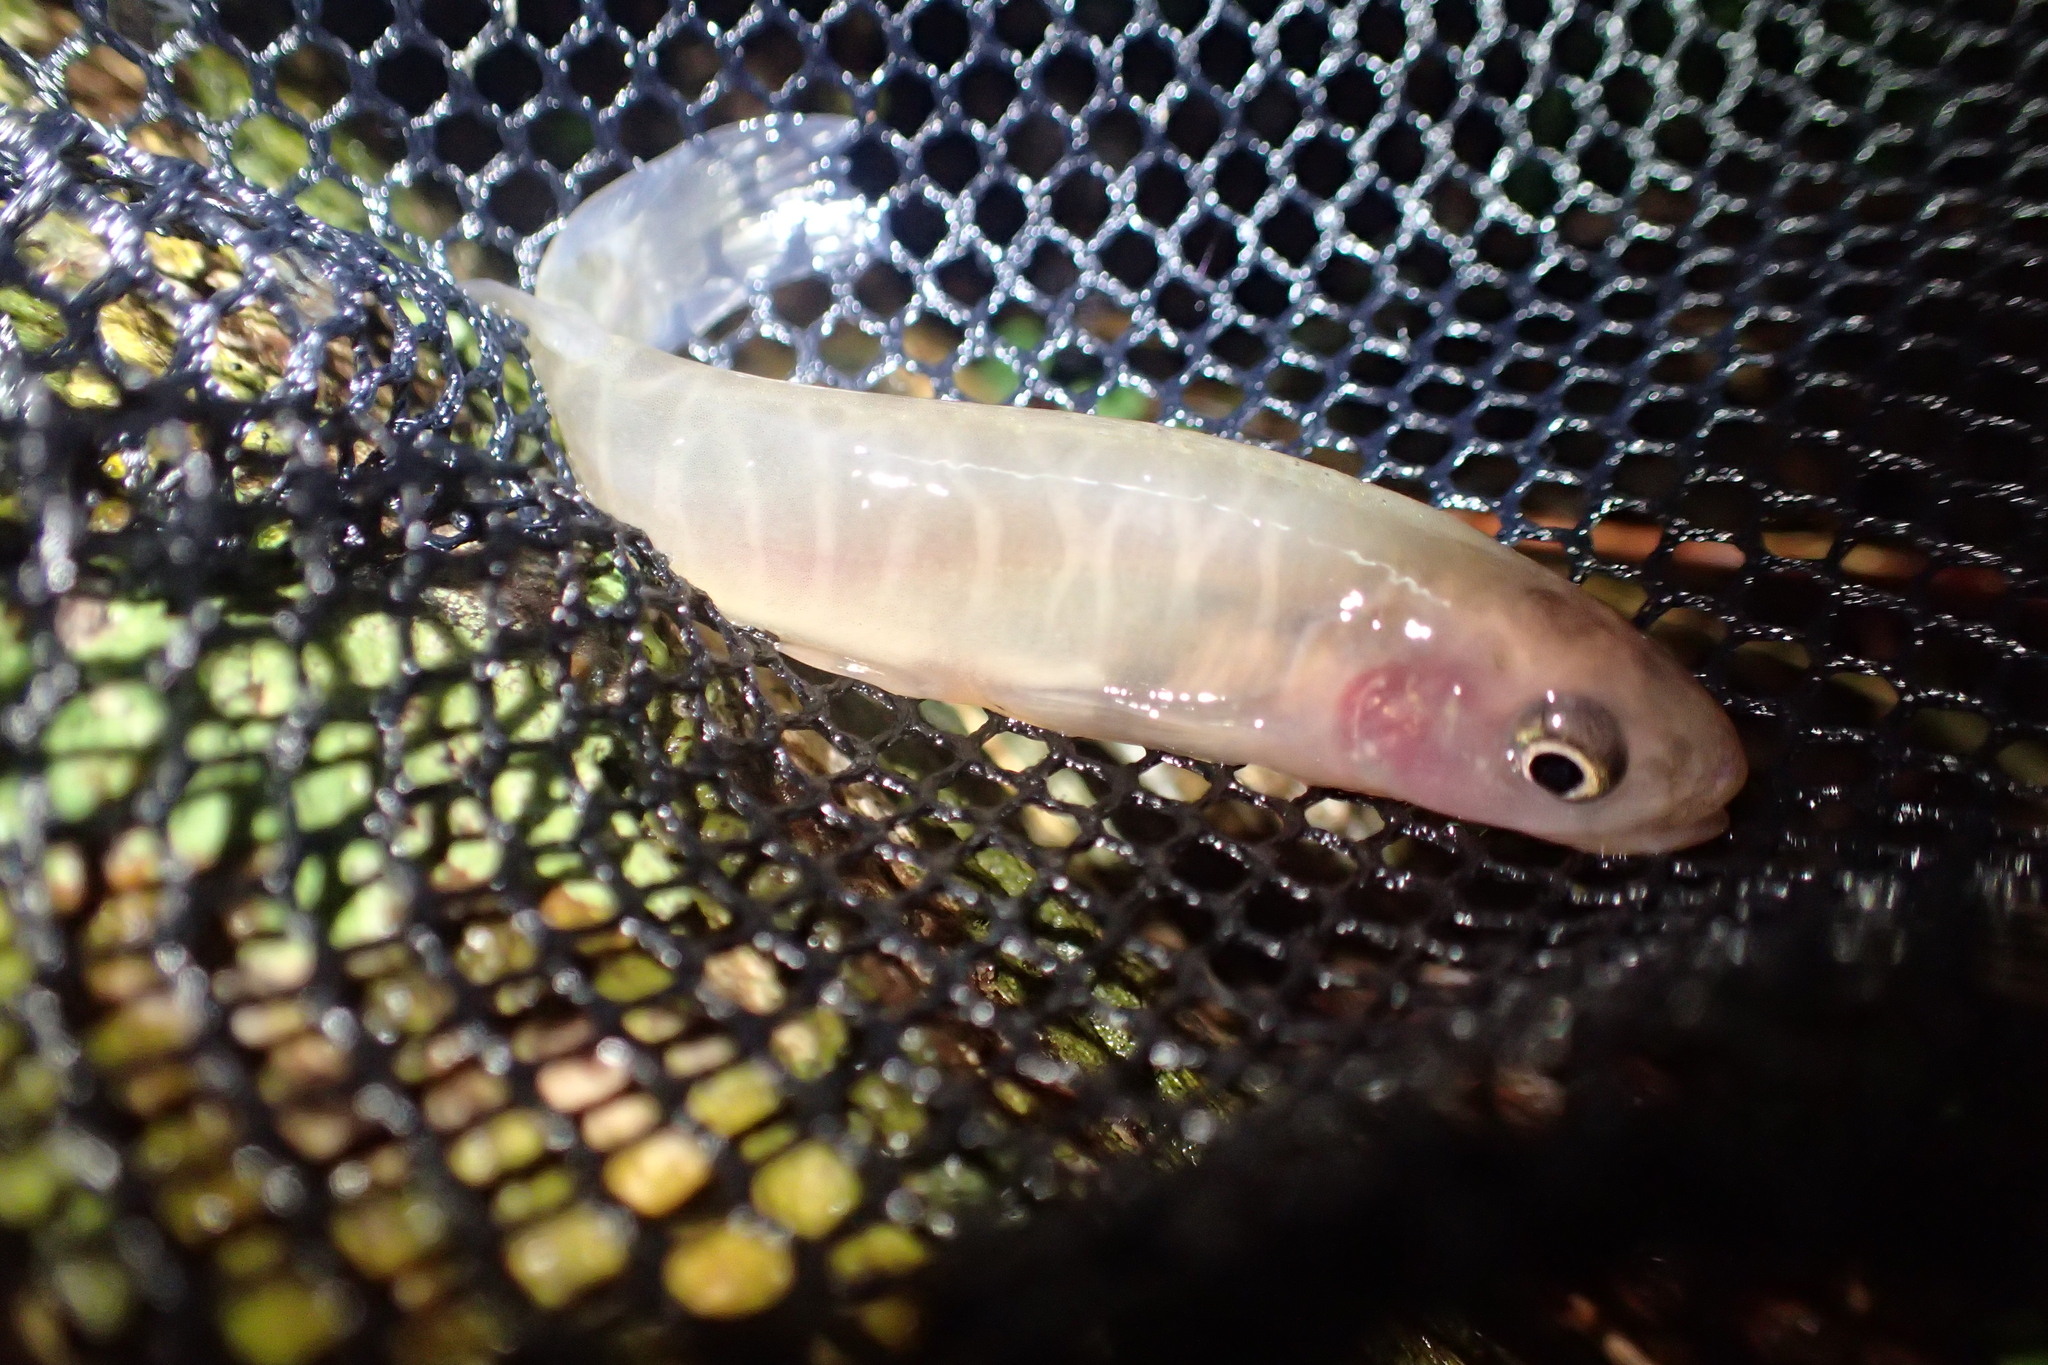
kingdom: Animalia
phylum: Chordata
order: Osmeriformes
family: Galaxiidae
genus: Galaxias
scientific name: Galaxias fasciatus
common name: Banded kokopu
